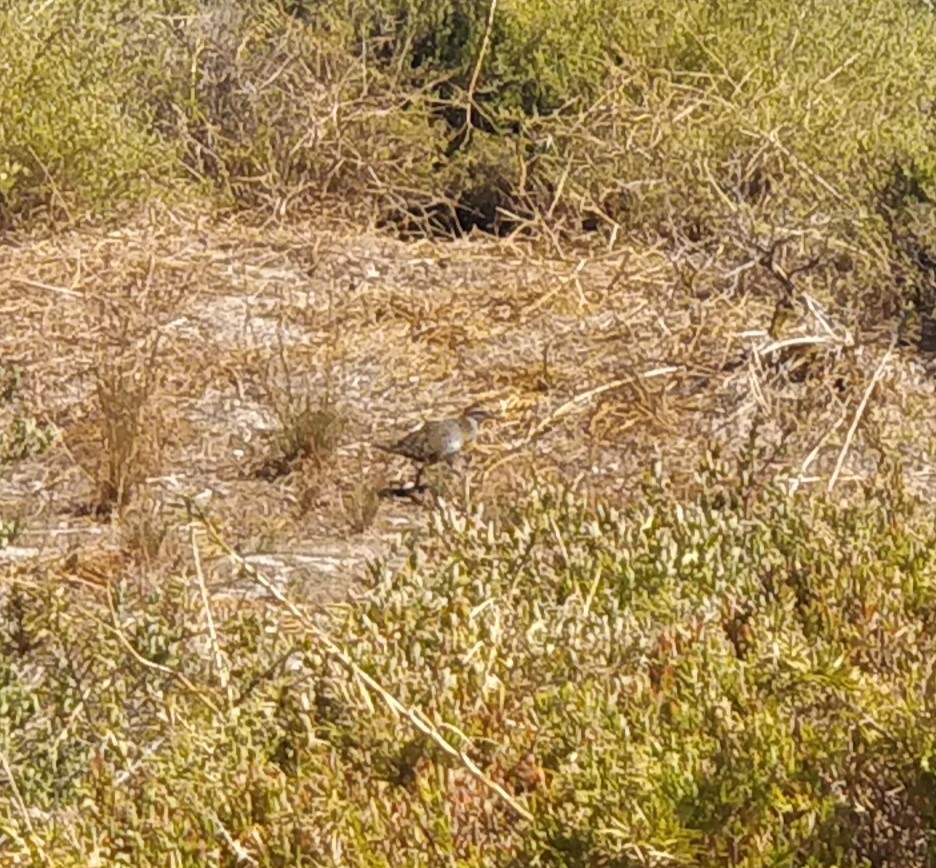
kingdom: Animalia
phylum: Chordata
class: Aves
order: Gruiformes
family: Rallidae
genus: Gallirallus
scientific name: Gallirallus philippensis
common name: Buff-banded rail
